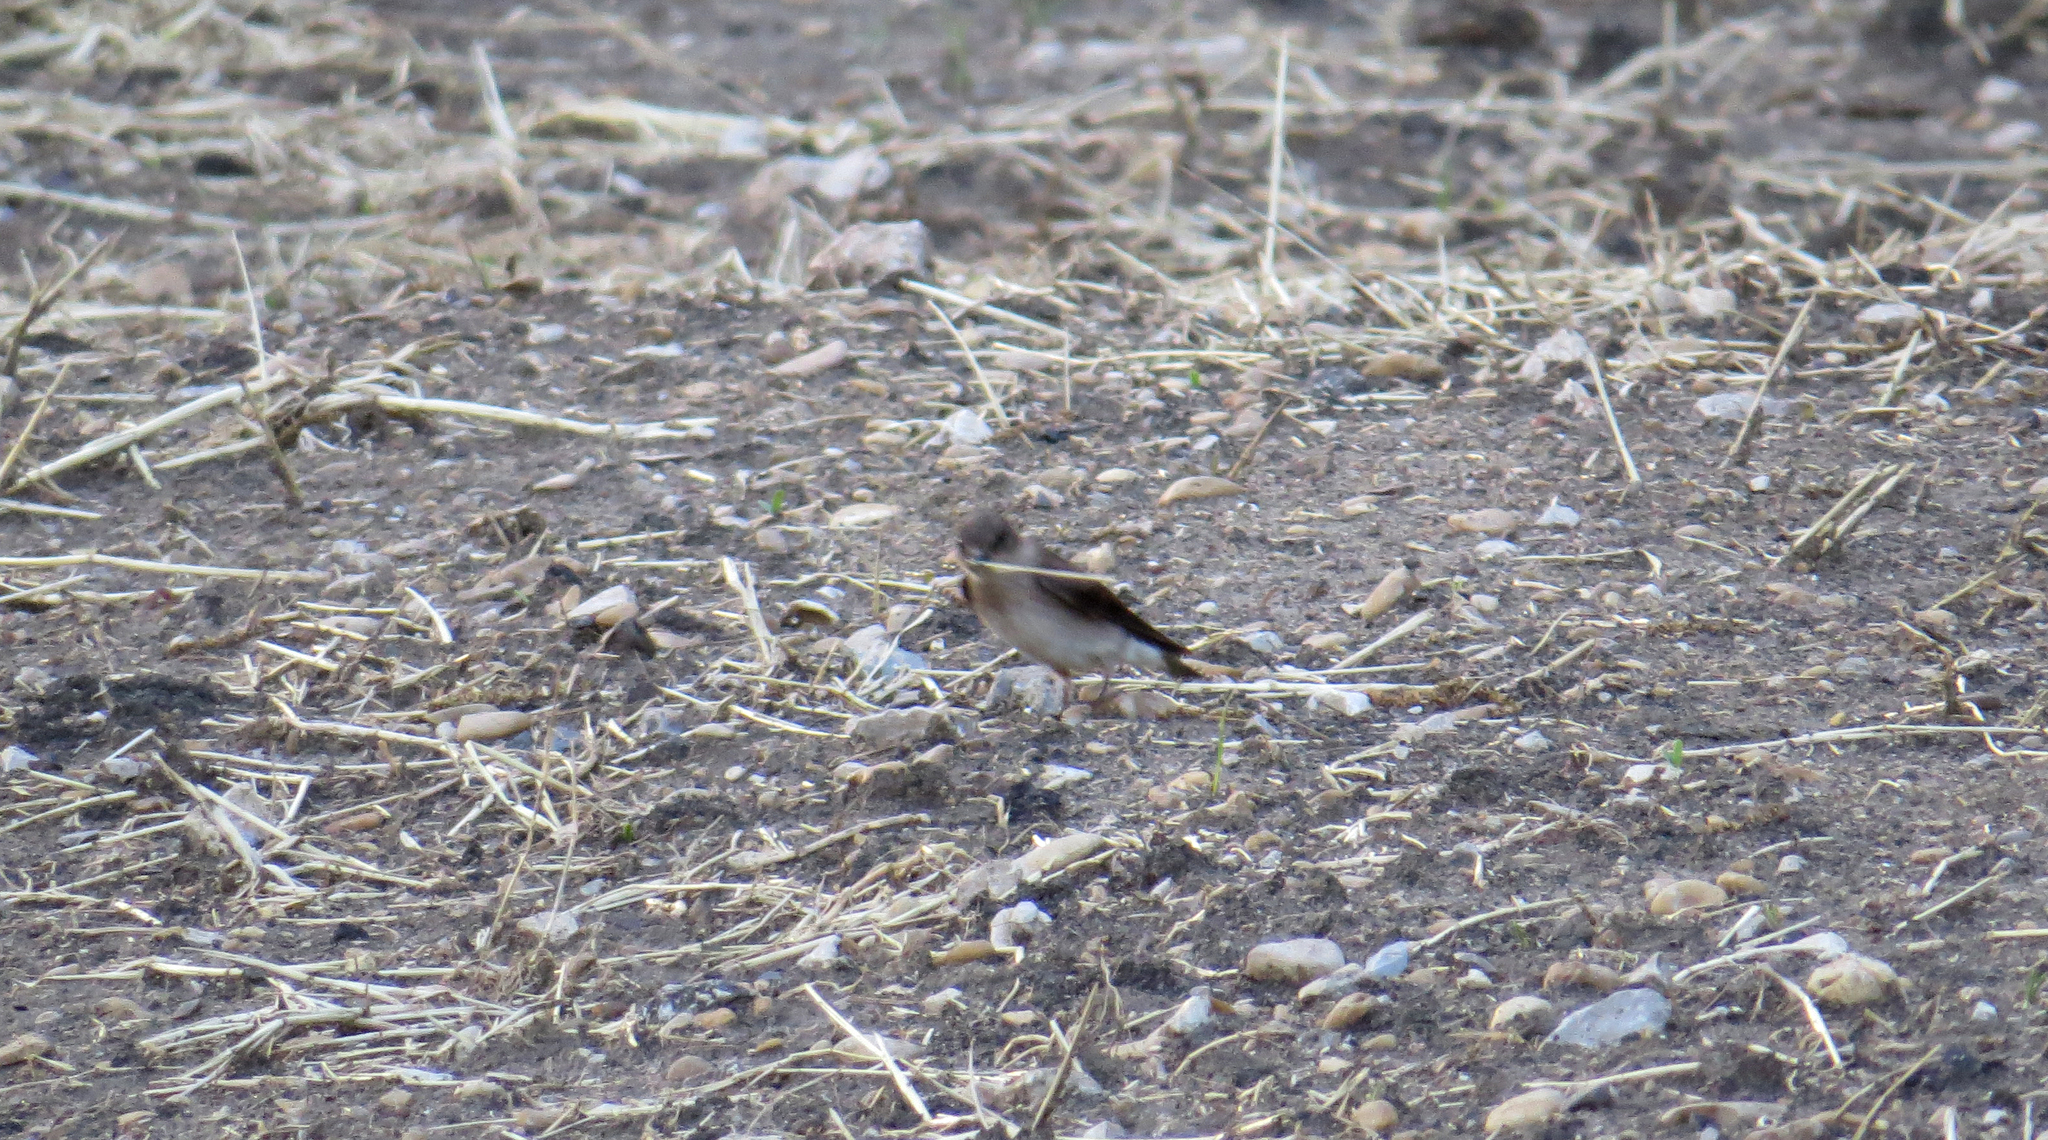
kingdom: Animalia
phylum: Chordata
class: Aves
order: Passeriformes
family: Hirundinidae
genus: Stelgidopteryx
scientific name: Stelgidopteryx serripennis
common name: Northern rough-winged swallow
